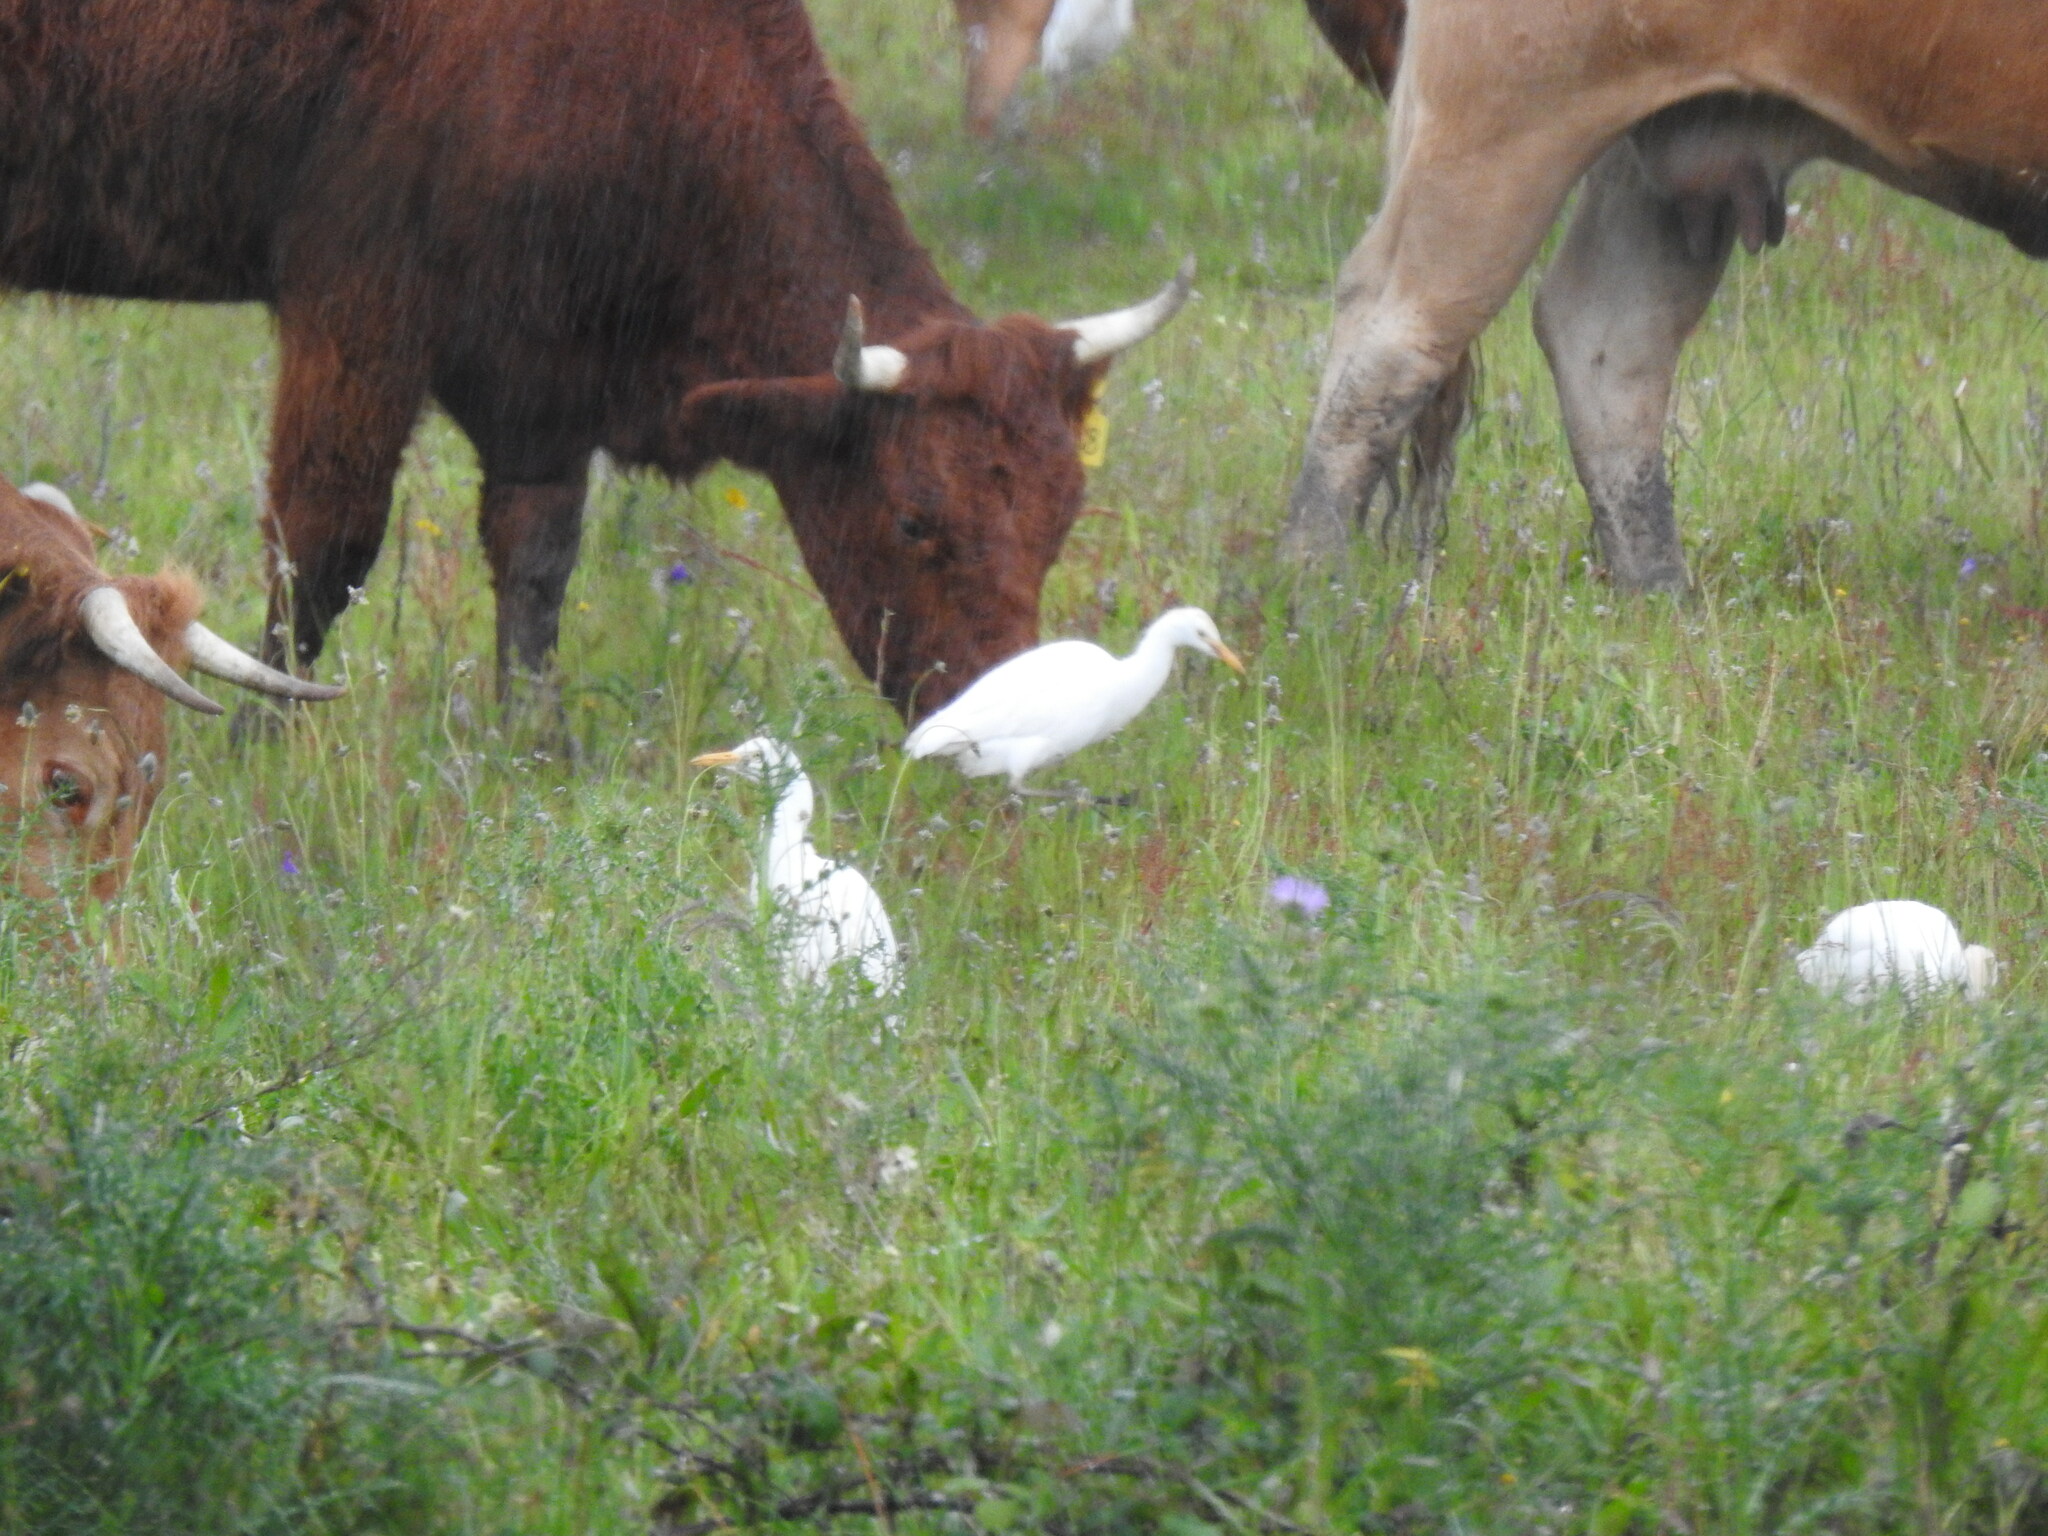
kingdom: Animalia
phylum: Chordata
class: Aves
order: Pelecaniformes
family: Ardeidae
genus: Bubulcus
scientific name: Bubulcus ibis
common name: Cattle egret
